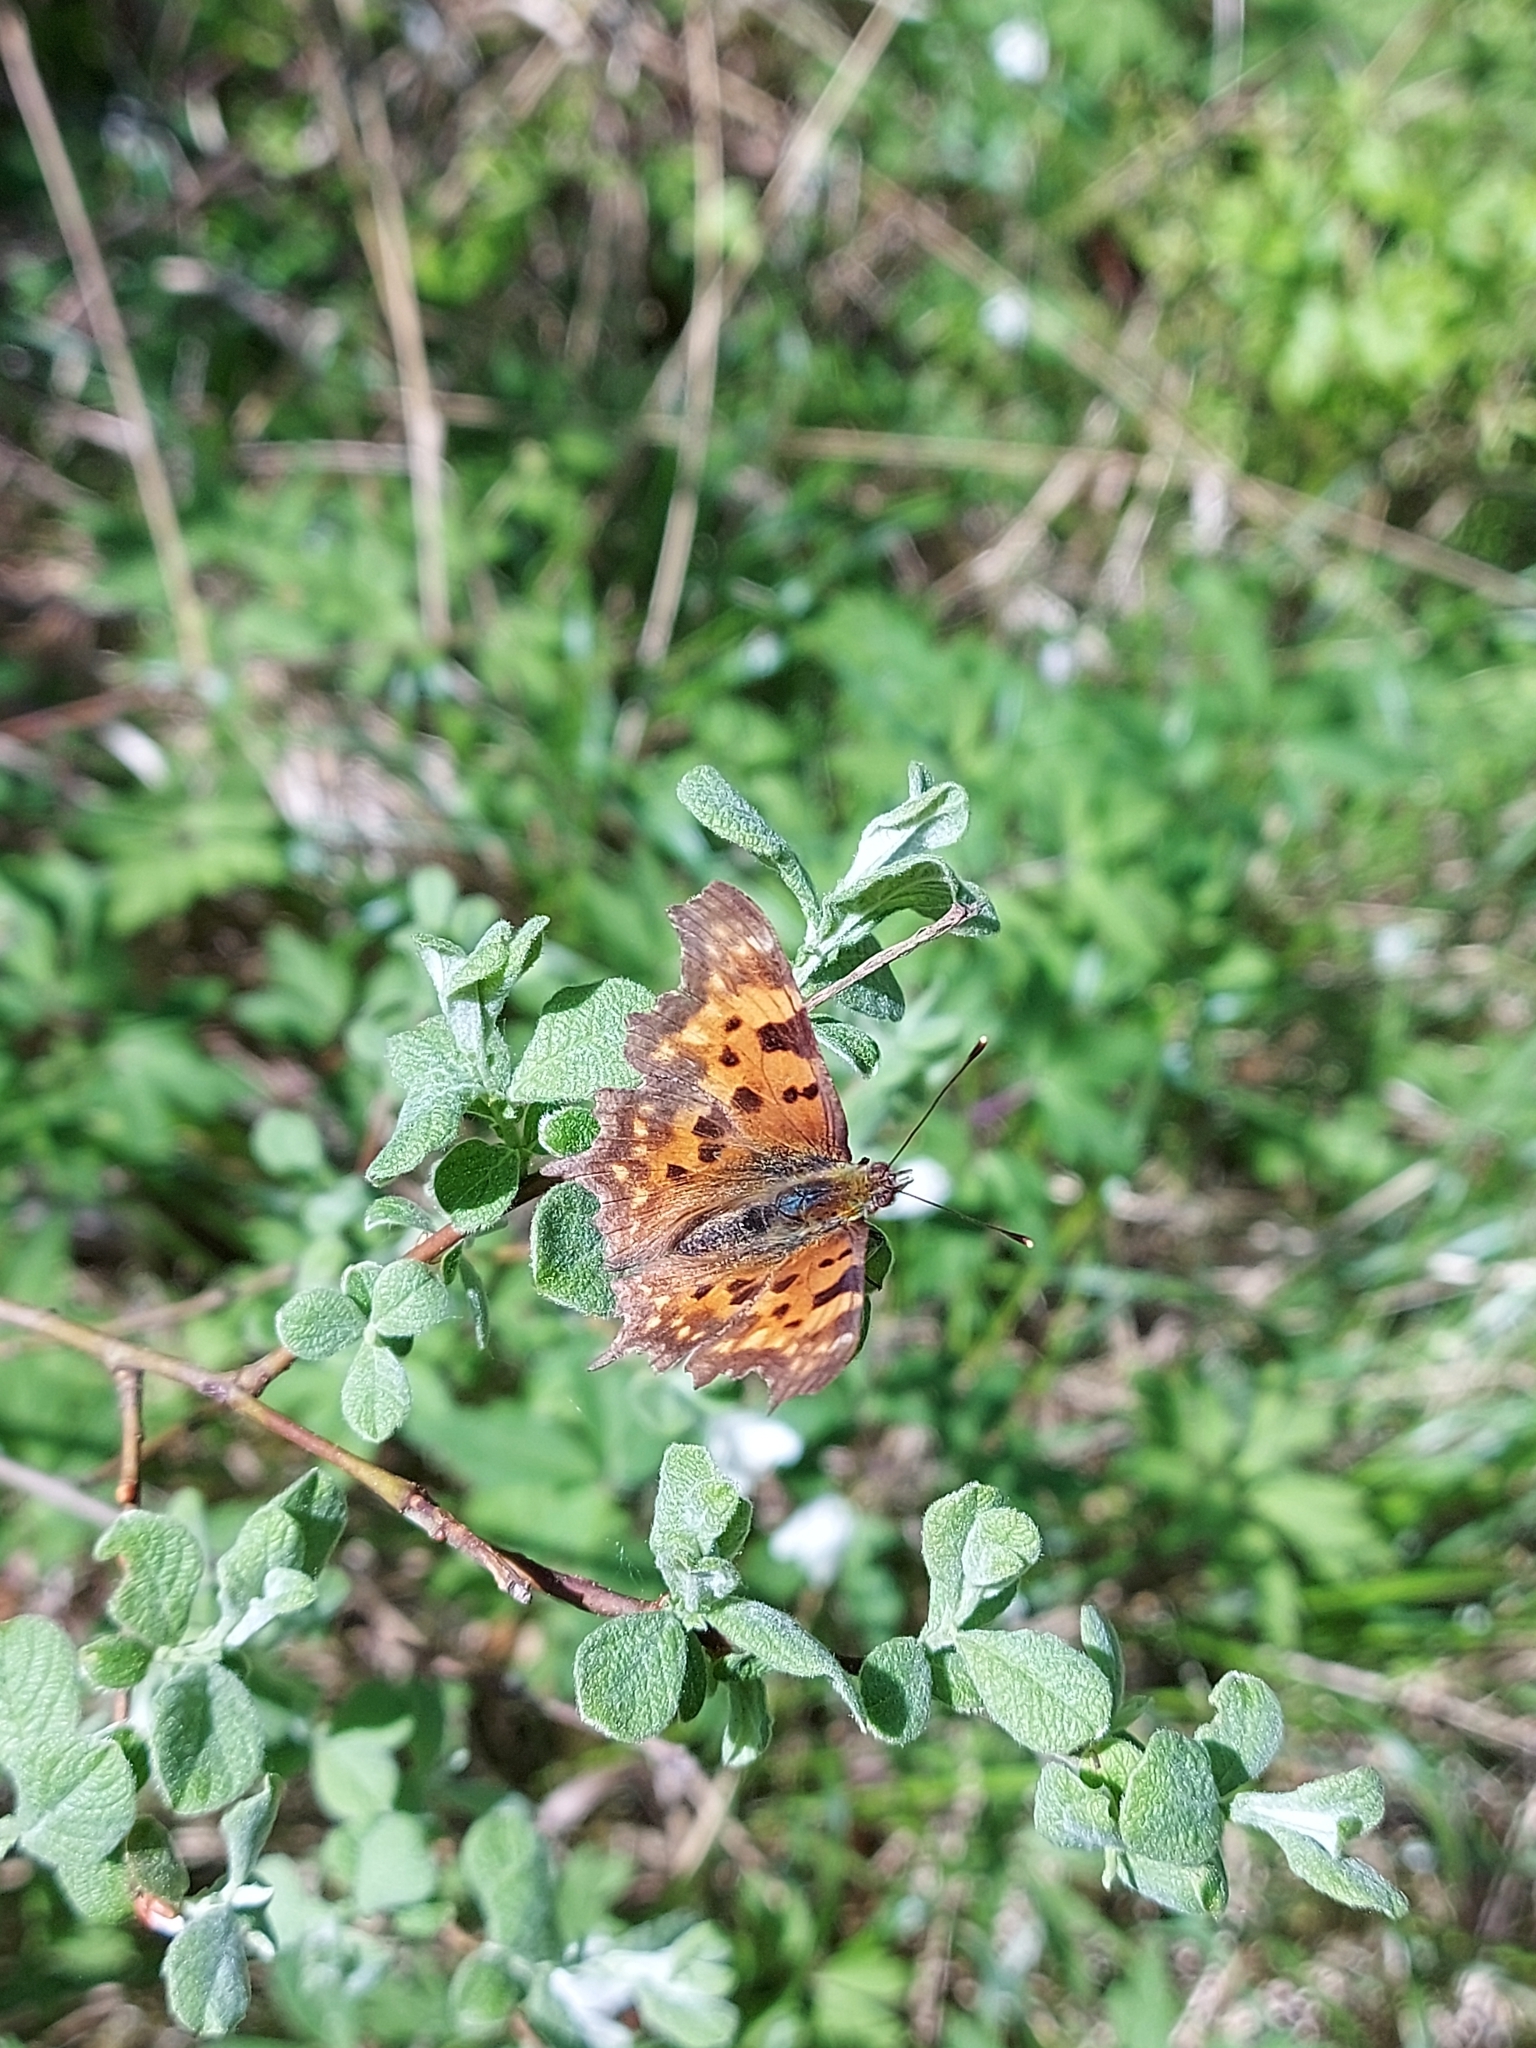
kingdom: Animalia
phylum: Arthropoda
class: Insecta
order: Lepidoptera
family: Nymphalidae
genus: Polygonia
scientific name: Polygonia c-album
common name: Comma
